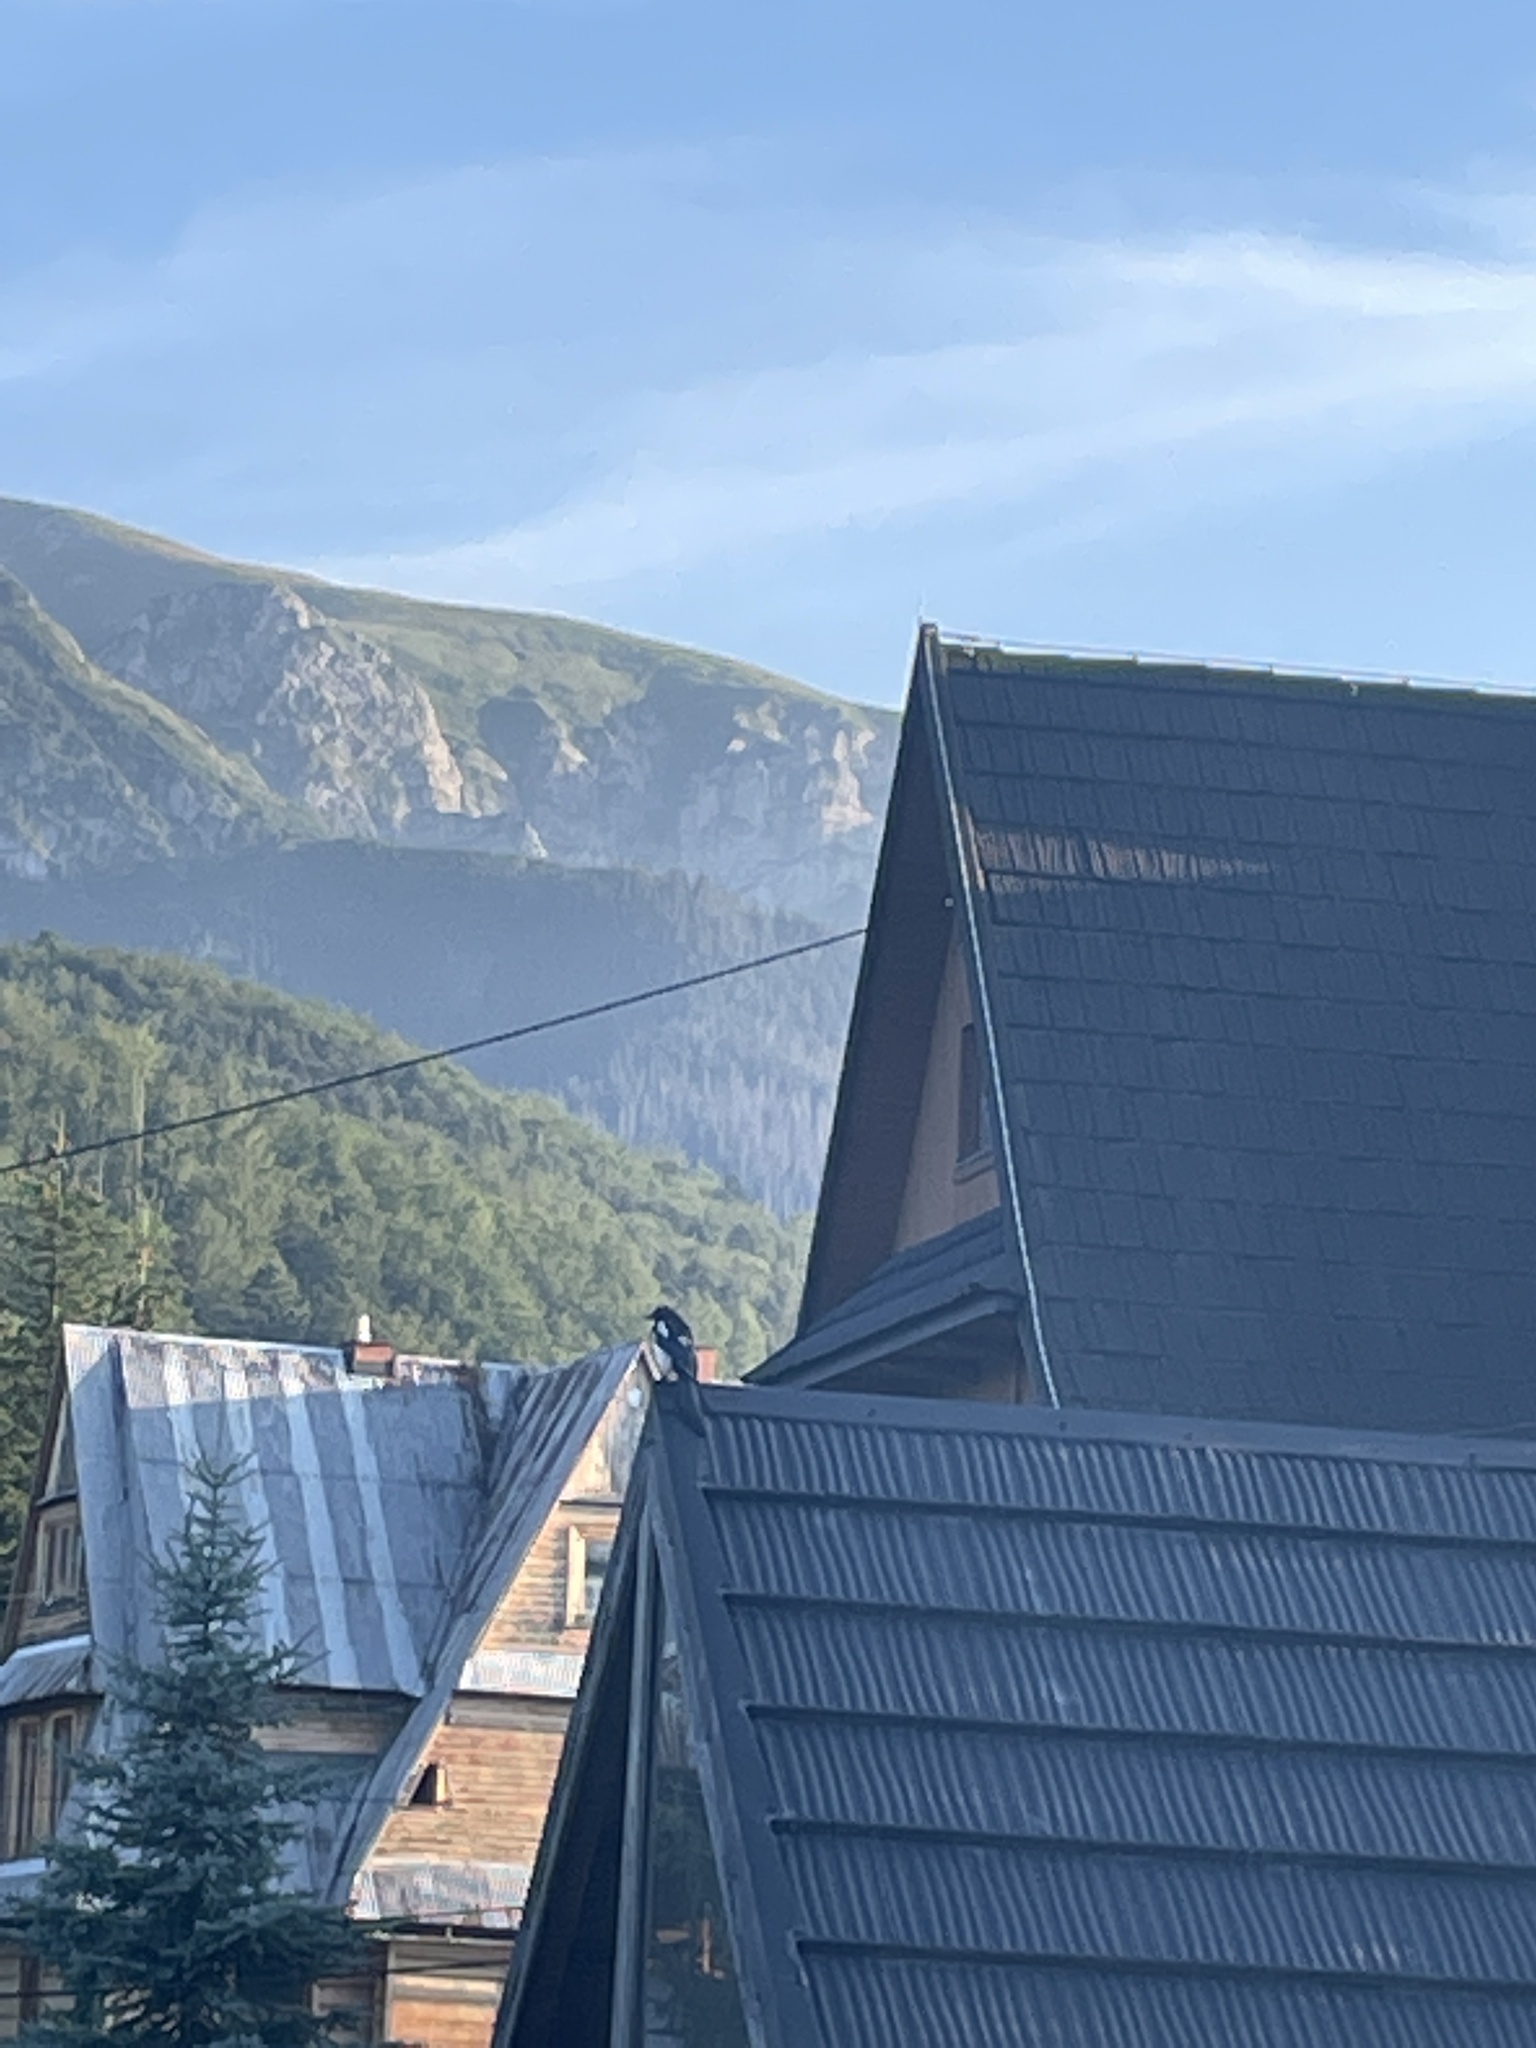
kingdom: Animalia
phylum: Chordata
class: Aves
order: Passeriformes
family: Corvidae
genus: Pica
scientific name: Pica pica
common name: Eurasian magpie
